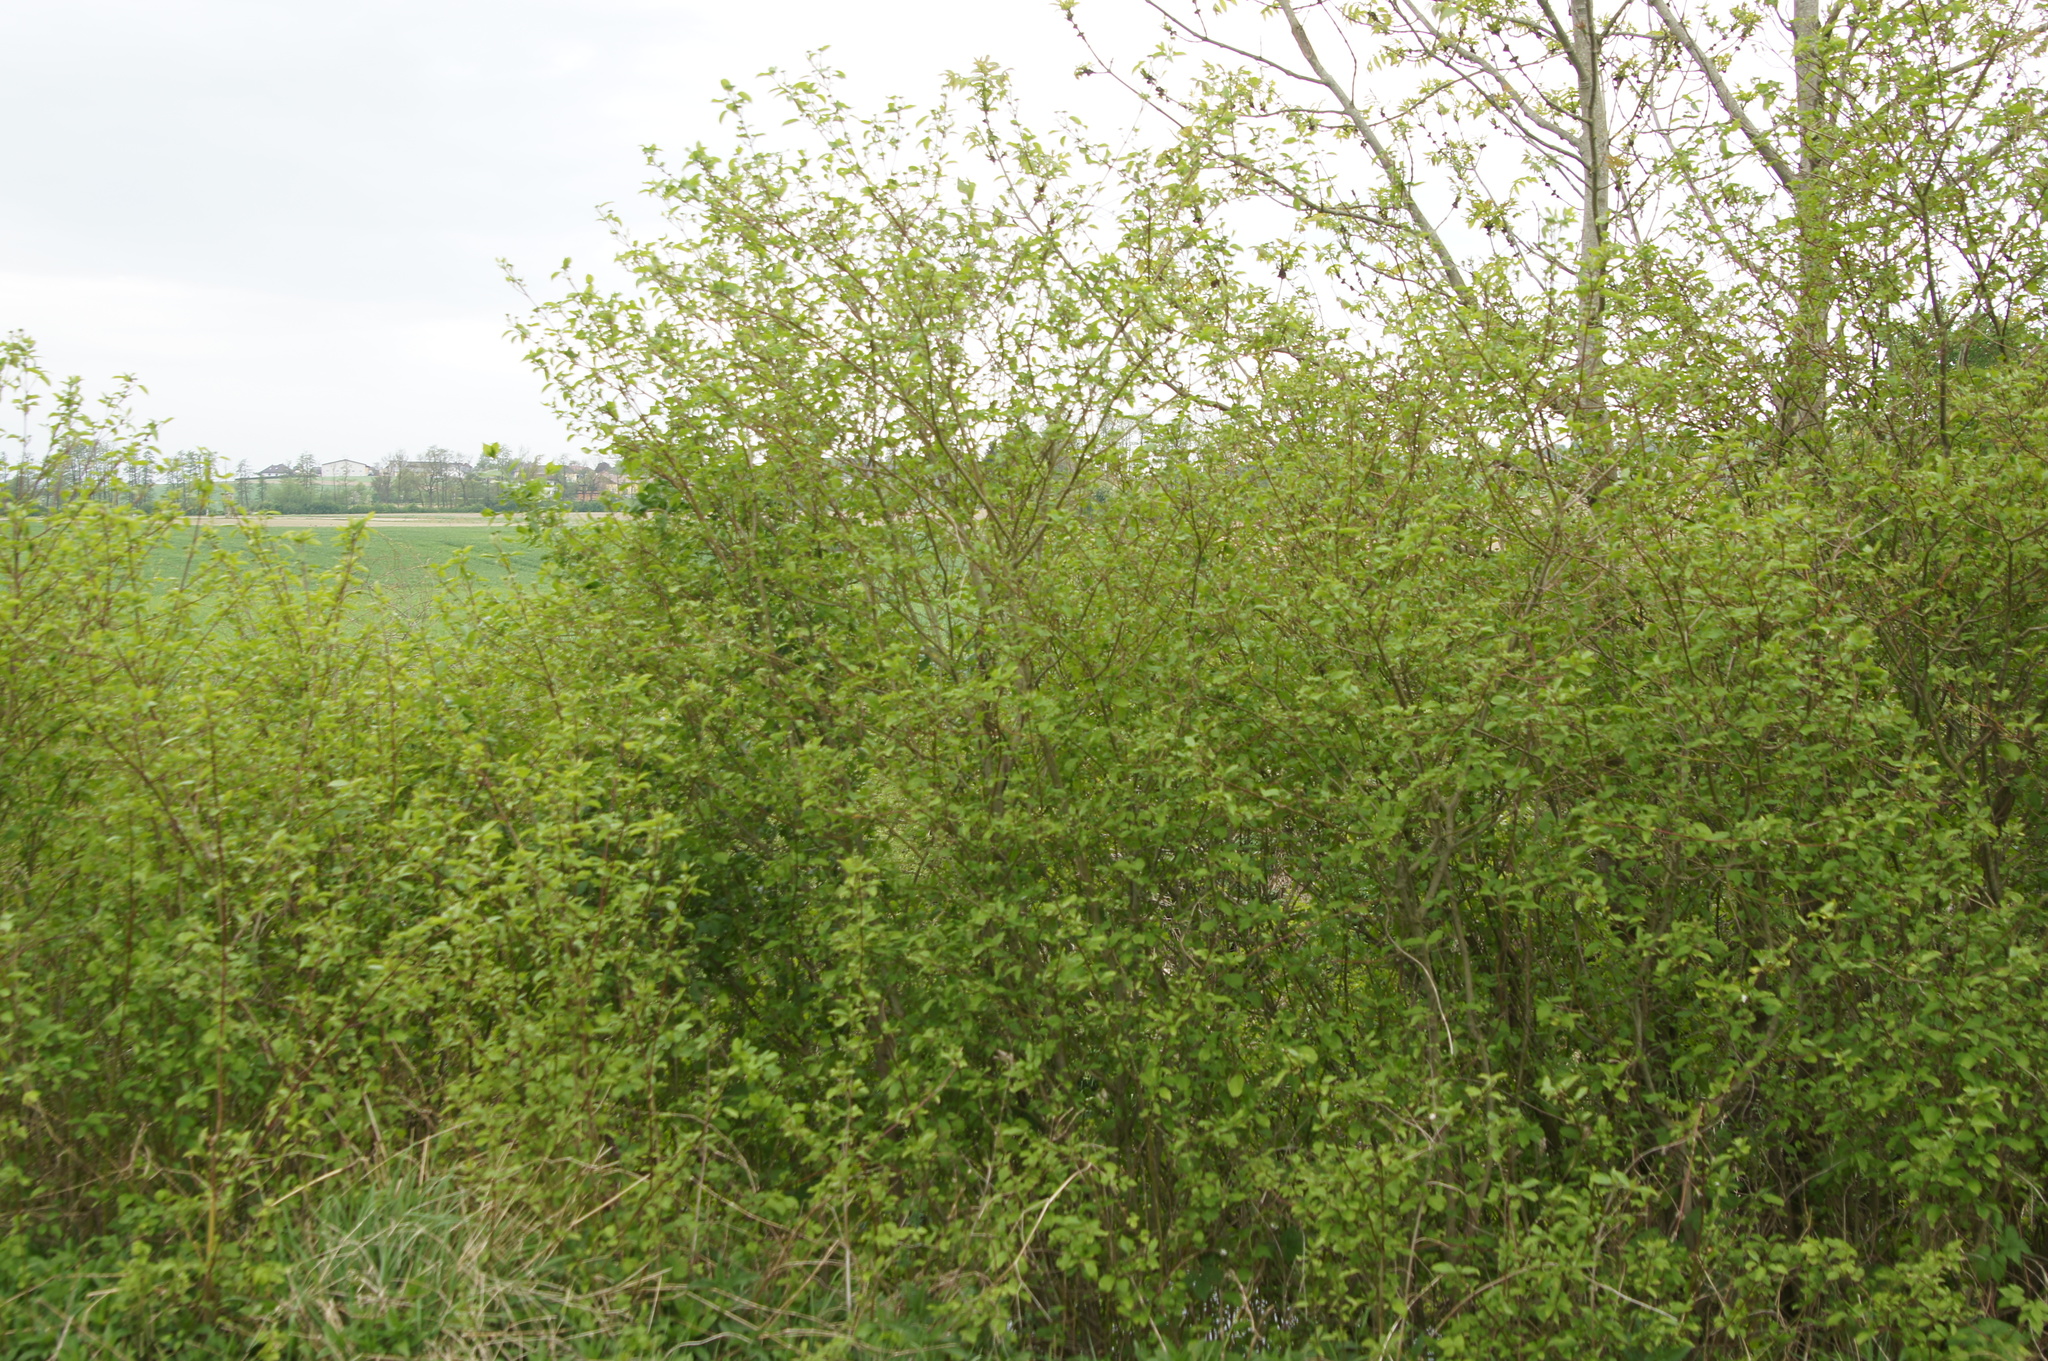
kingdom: Plantae
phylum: Tracheophyta
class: Magnoliopsida
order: Cornales
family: Cornaceae
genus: Cornus
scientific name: Cornus sanguinea
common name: Dogwood
